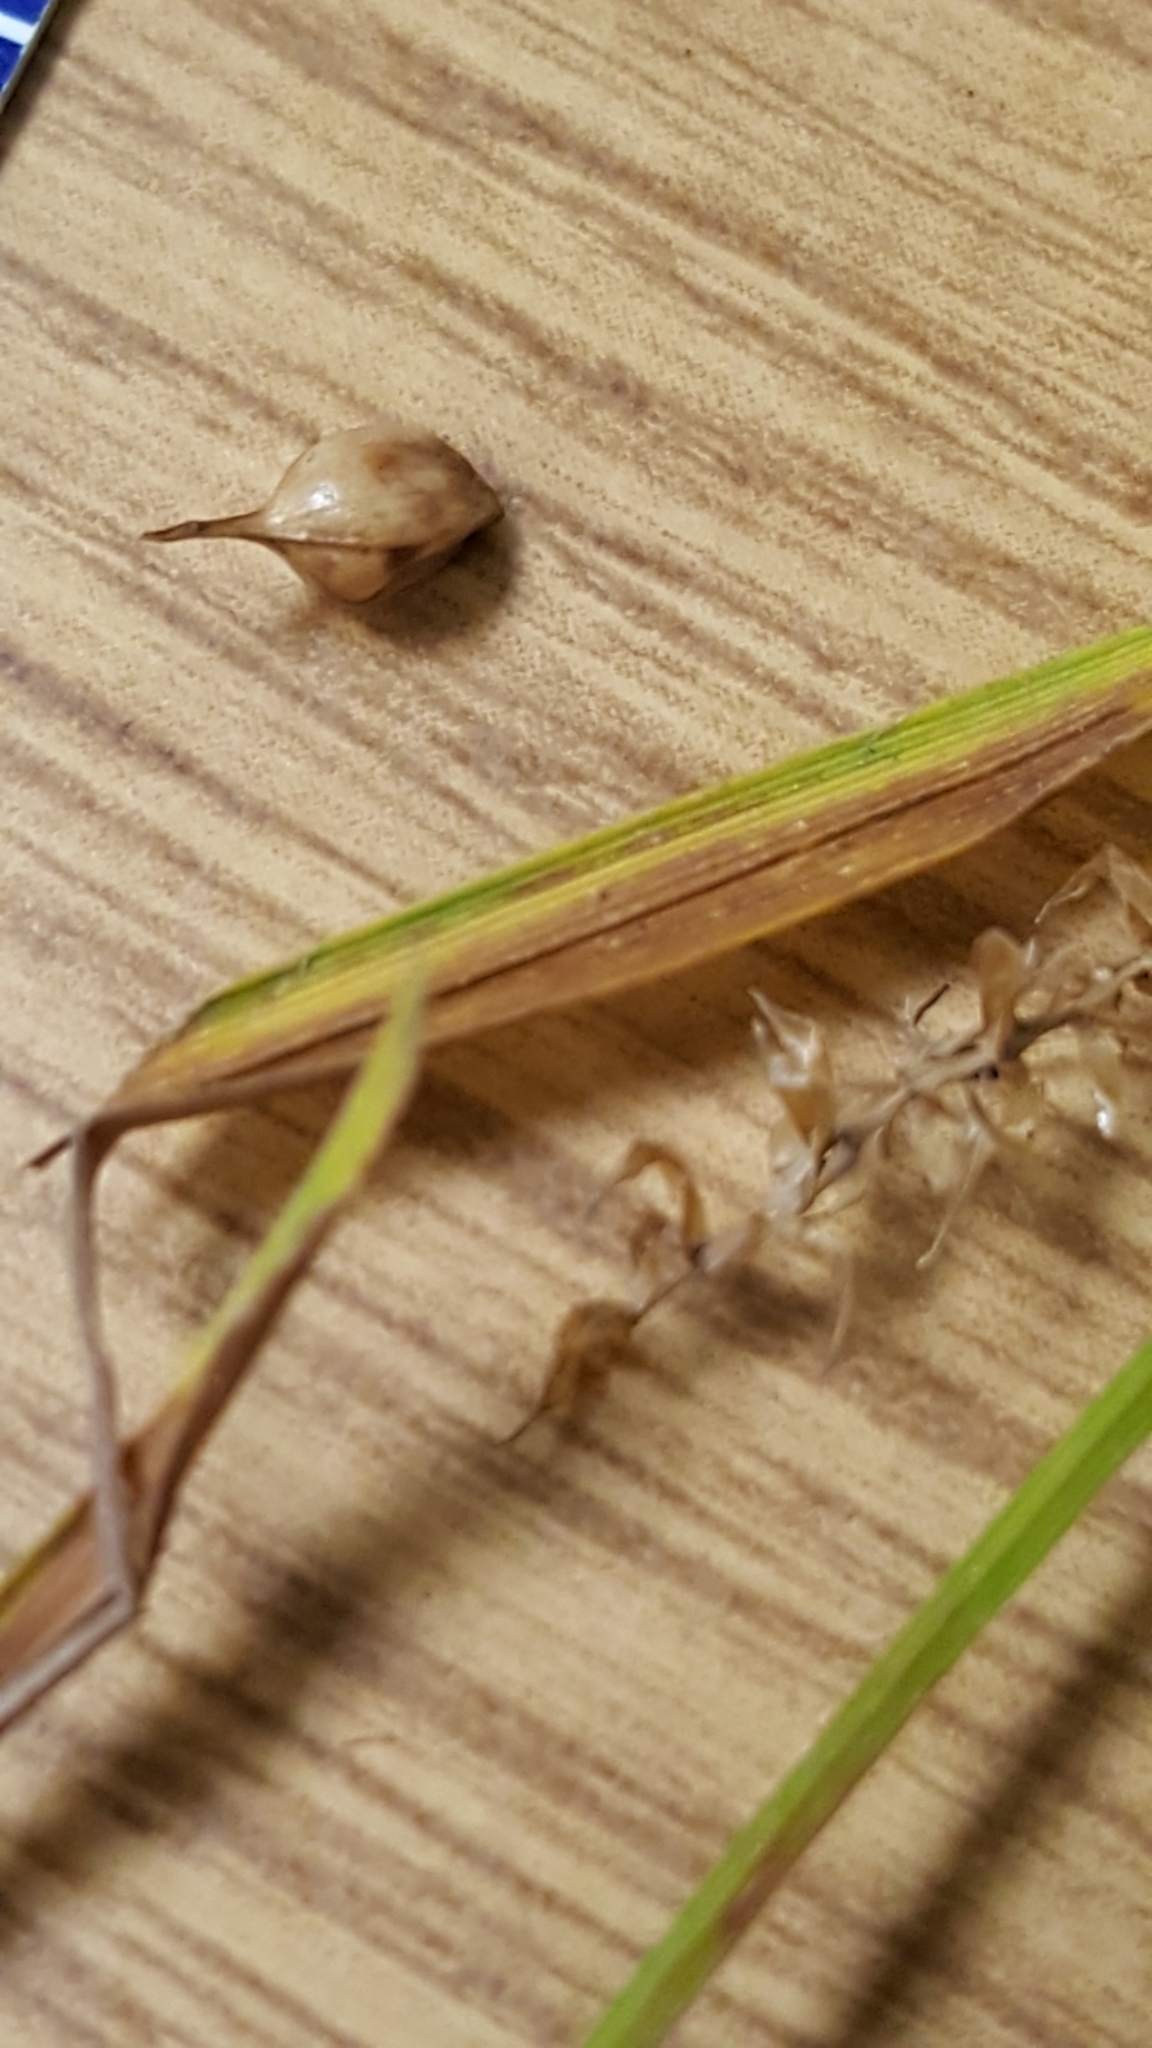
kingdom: Plantae
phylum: Tracheophyta
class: Liliopsida
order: Poales
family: Cyperaceae
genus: Carex
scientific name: Carex vesicaria
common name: Bladder-sedge
